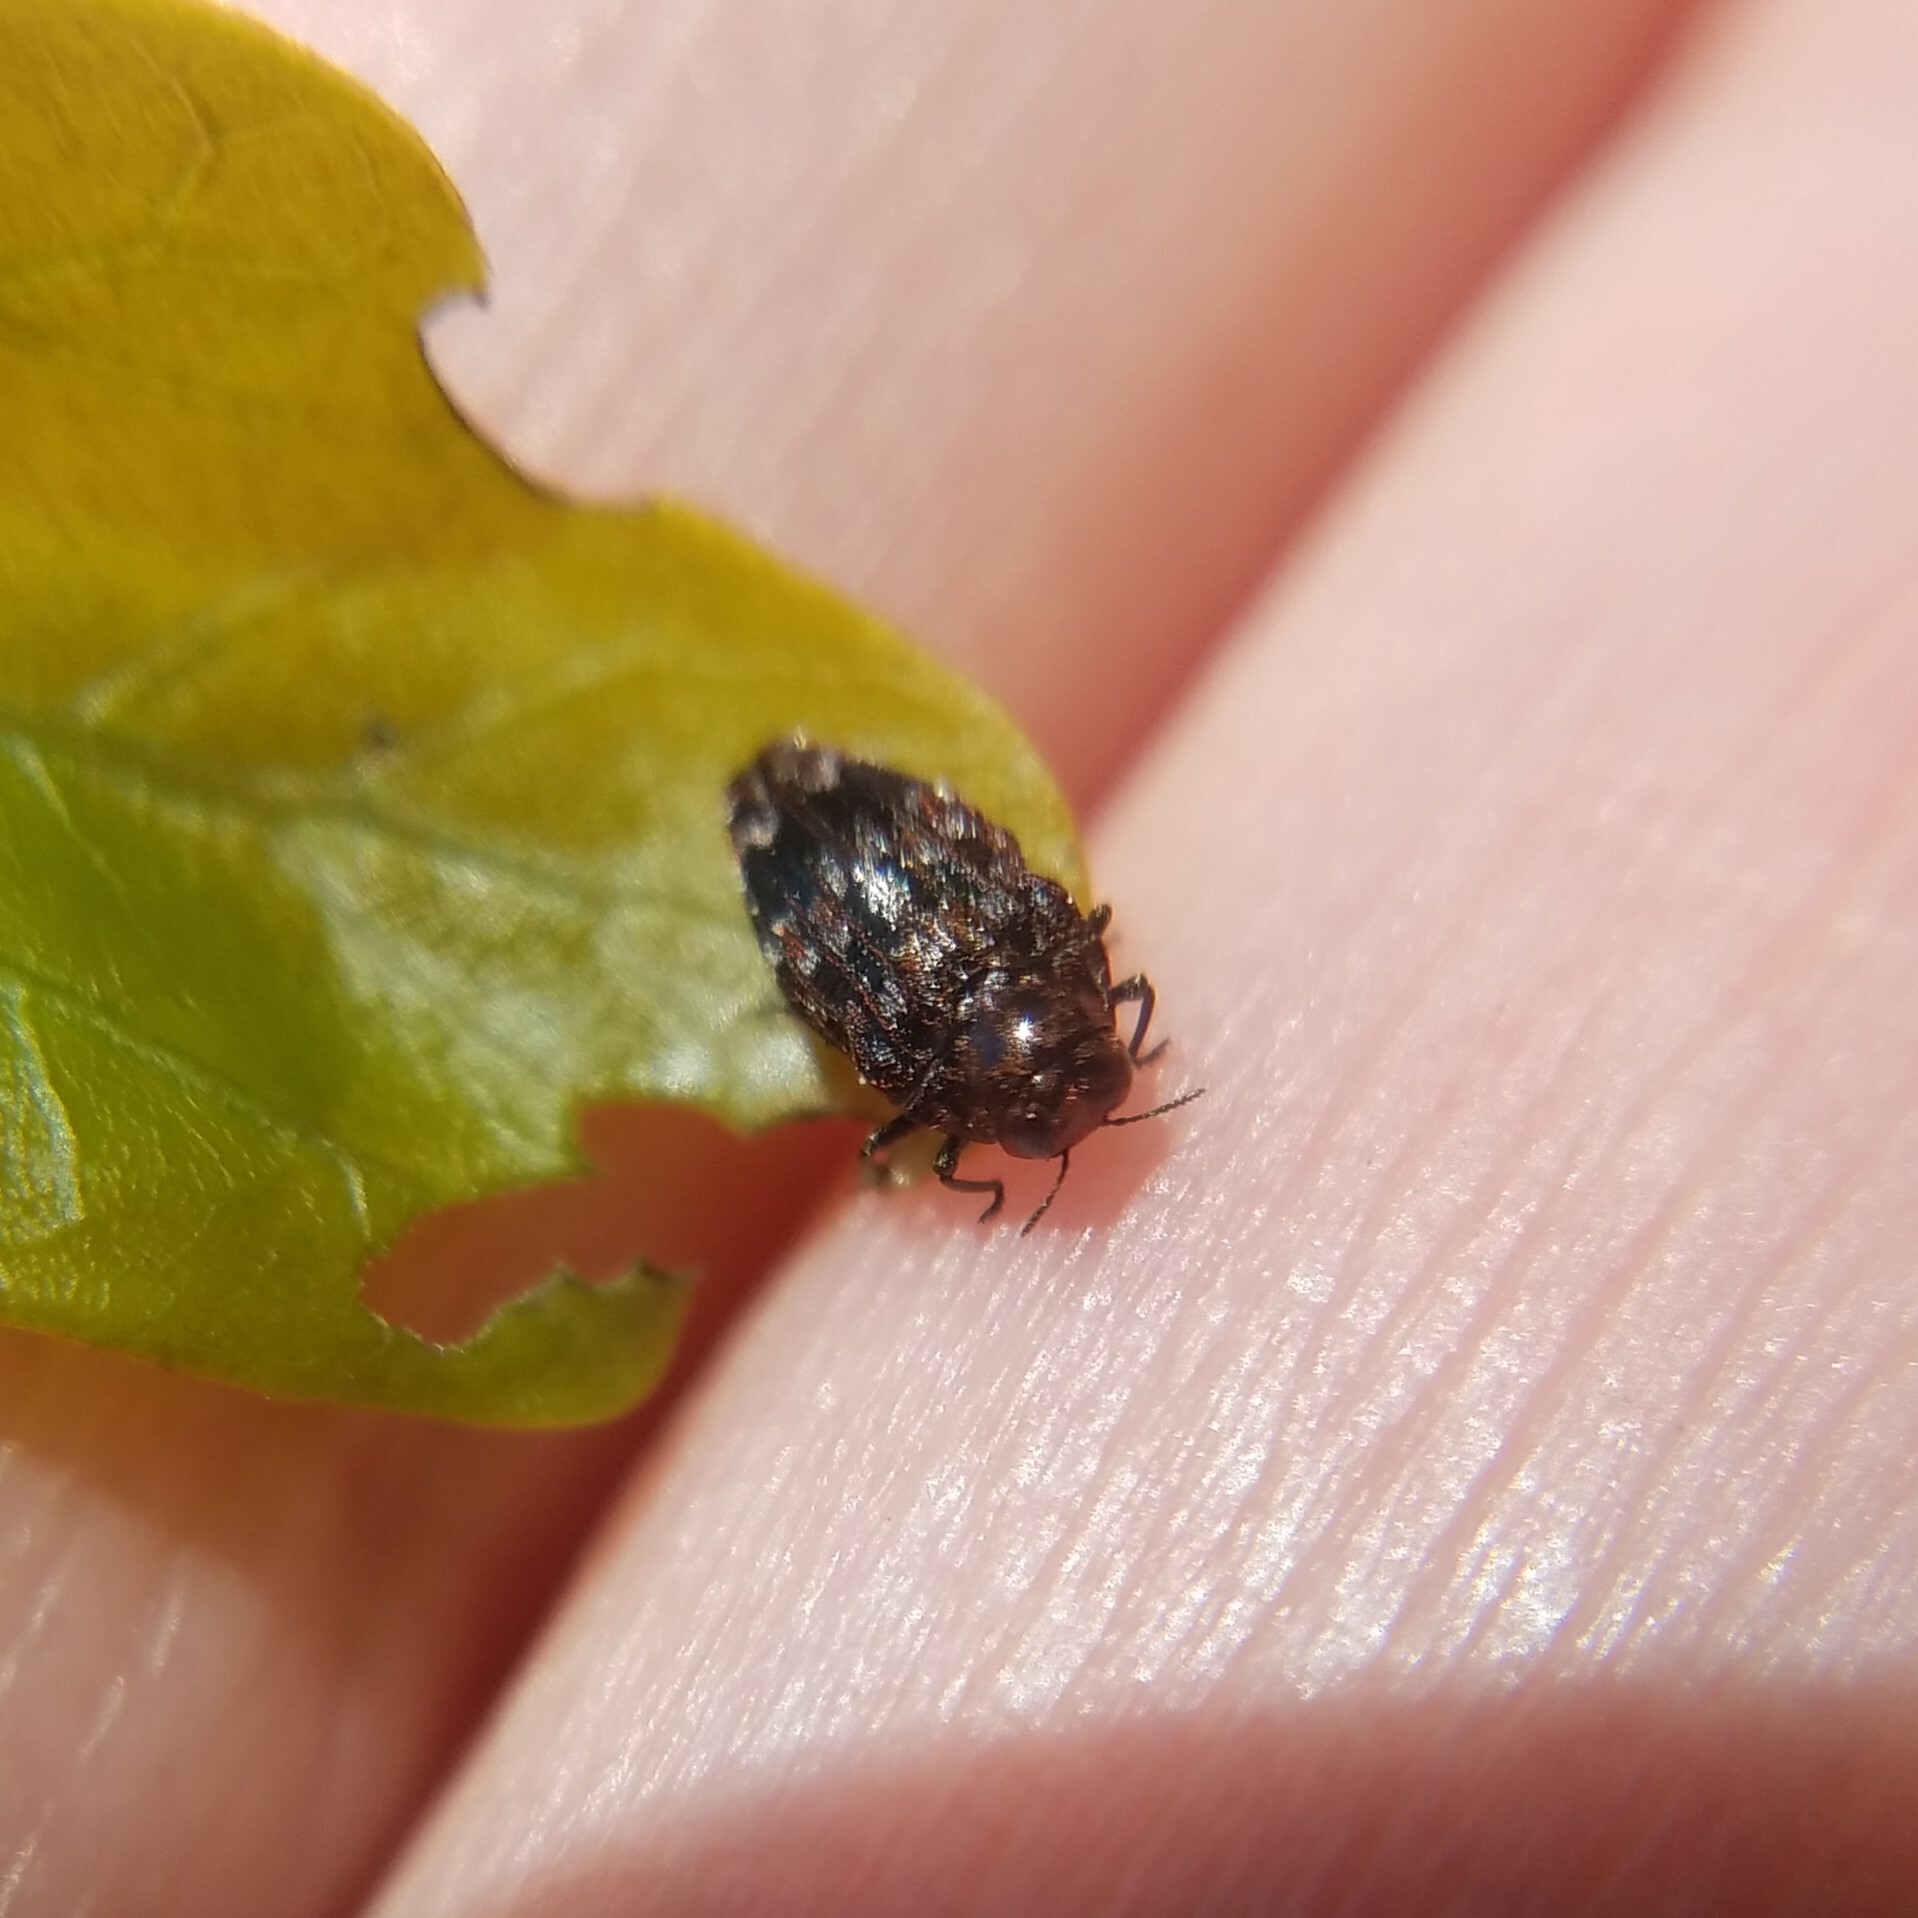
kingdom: Animalia
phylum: Arthropoda
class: Insecta
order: Coleoptera
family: Buprestidae
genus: Brachys
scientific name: Brachys ovatus
